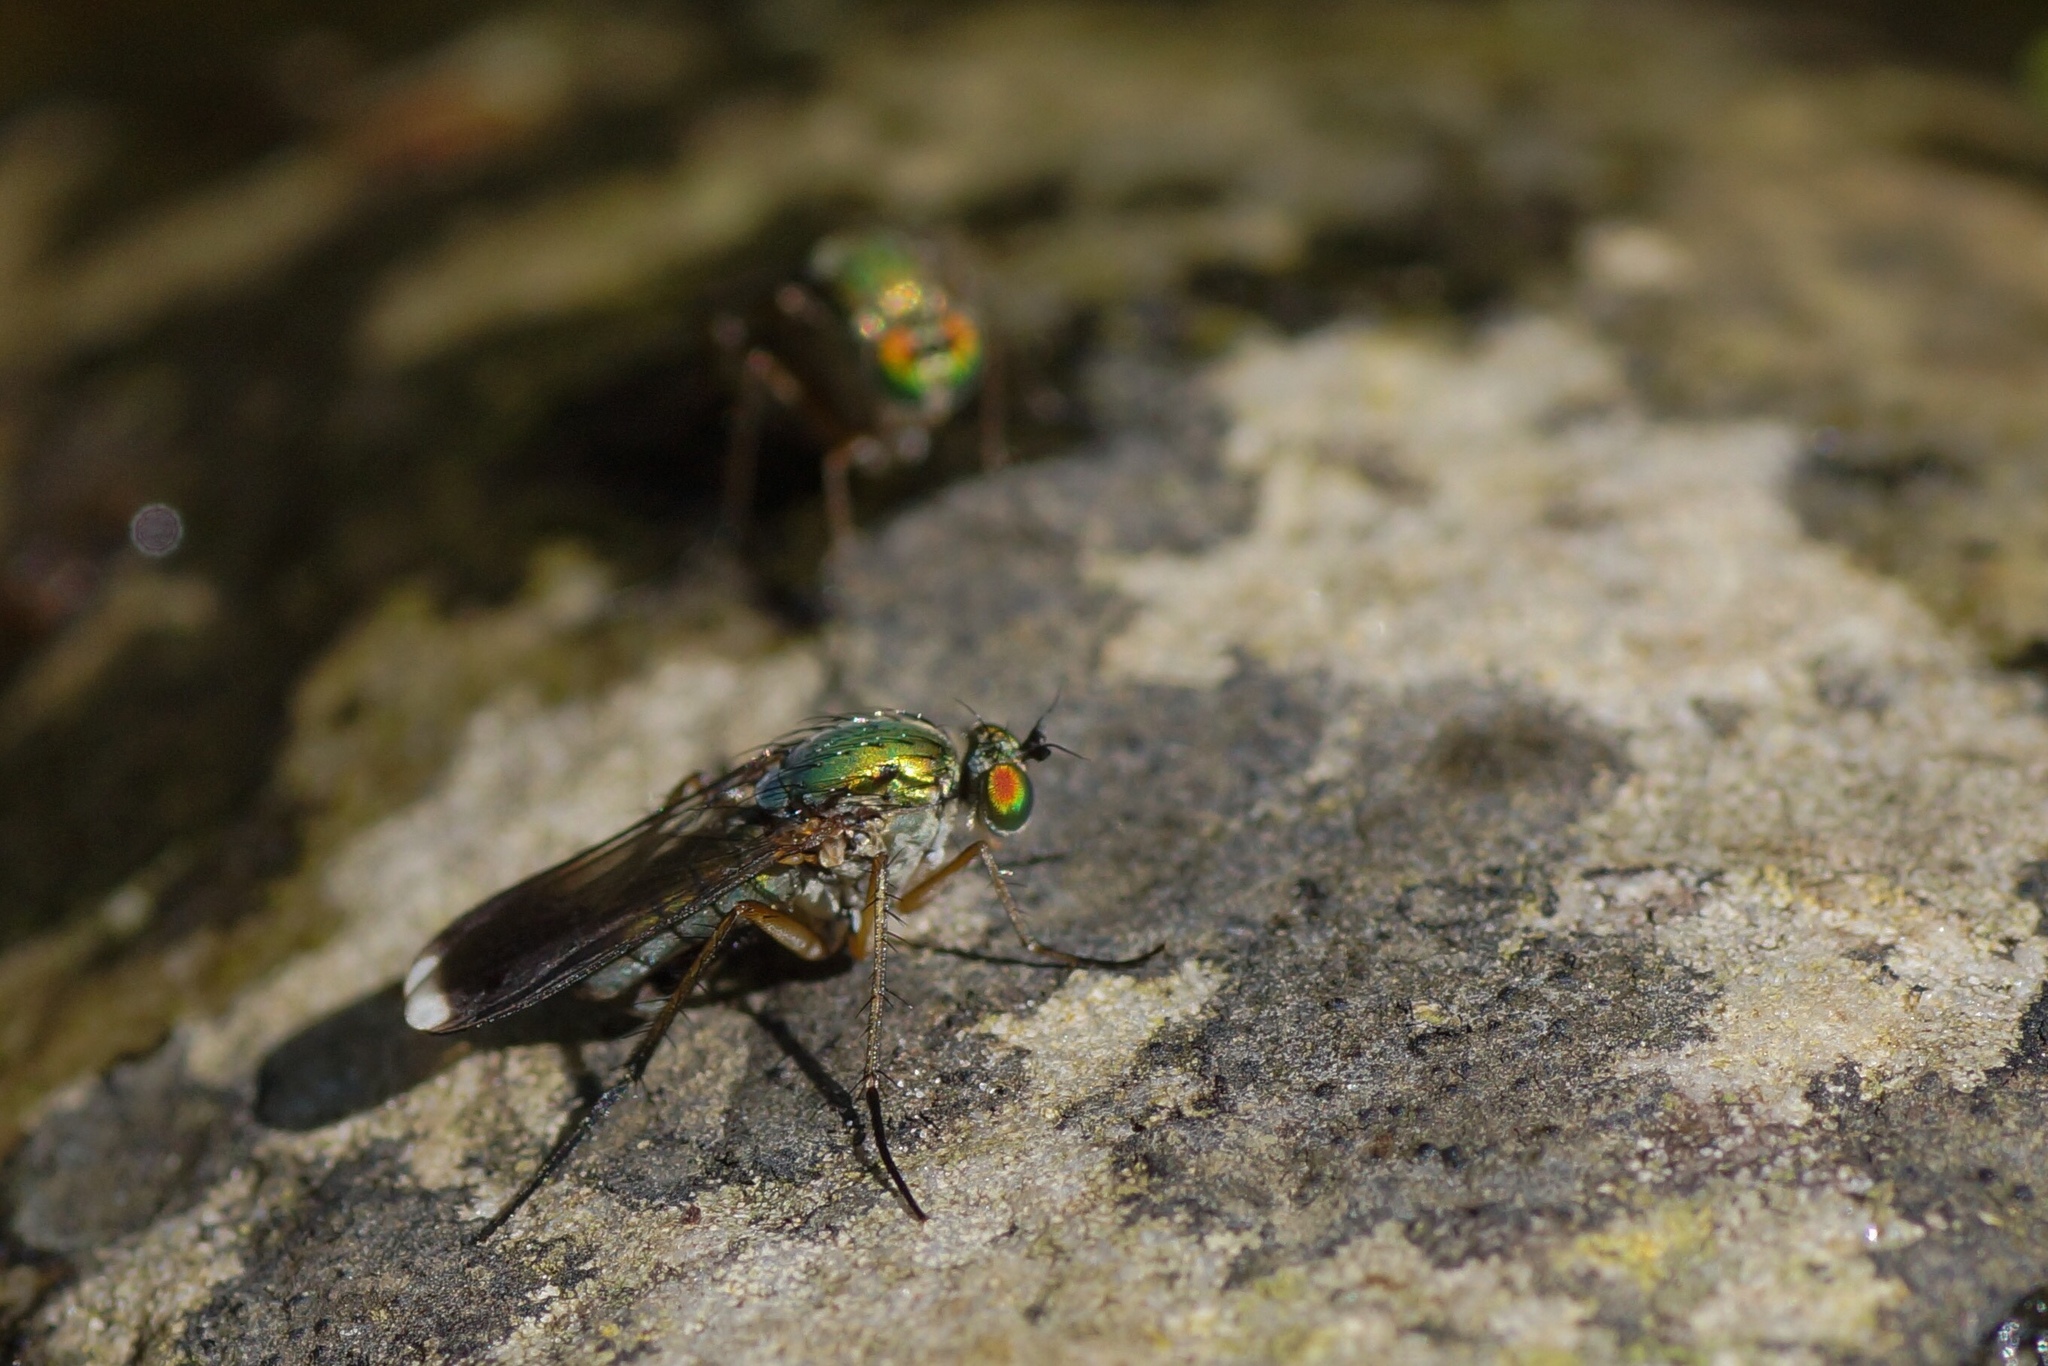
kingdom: Animalia
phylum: Arthropoda
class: Insecta
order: Diptera
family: Dolichopodidae
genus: Poecilobothrus
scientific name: Poecilobothrus nobilitatus
